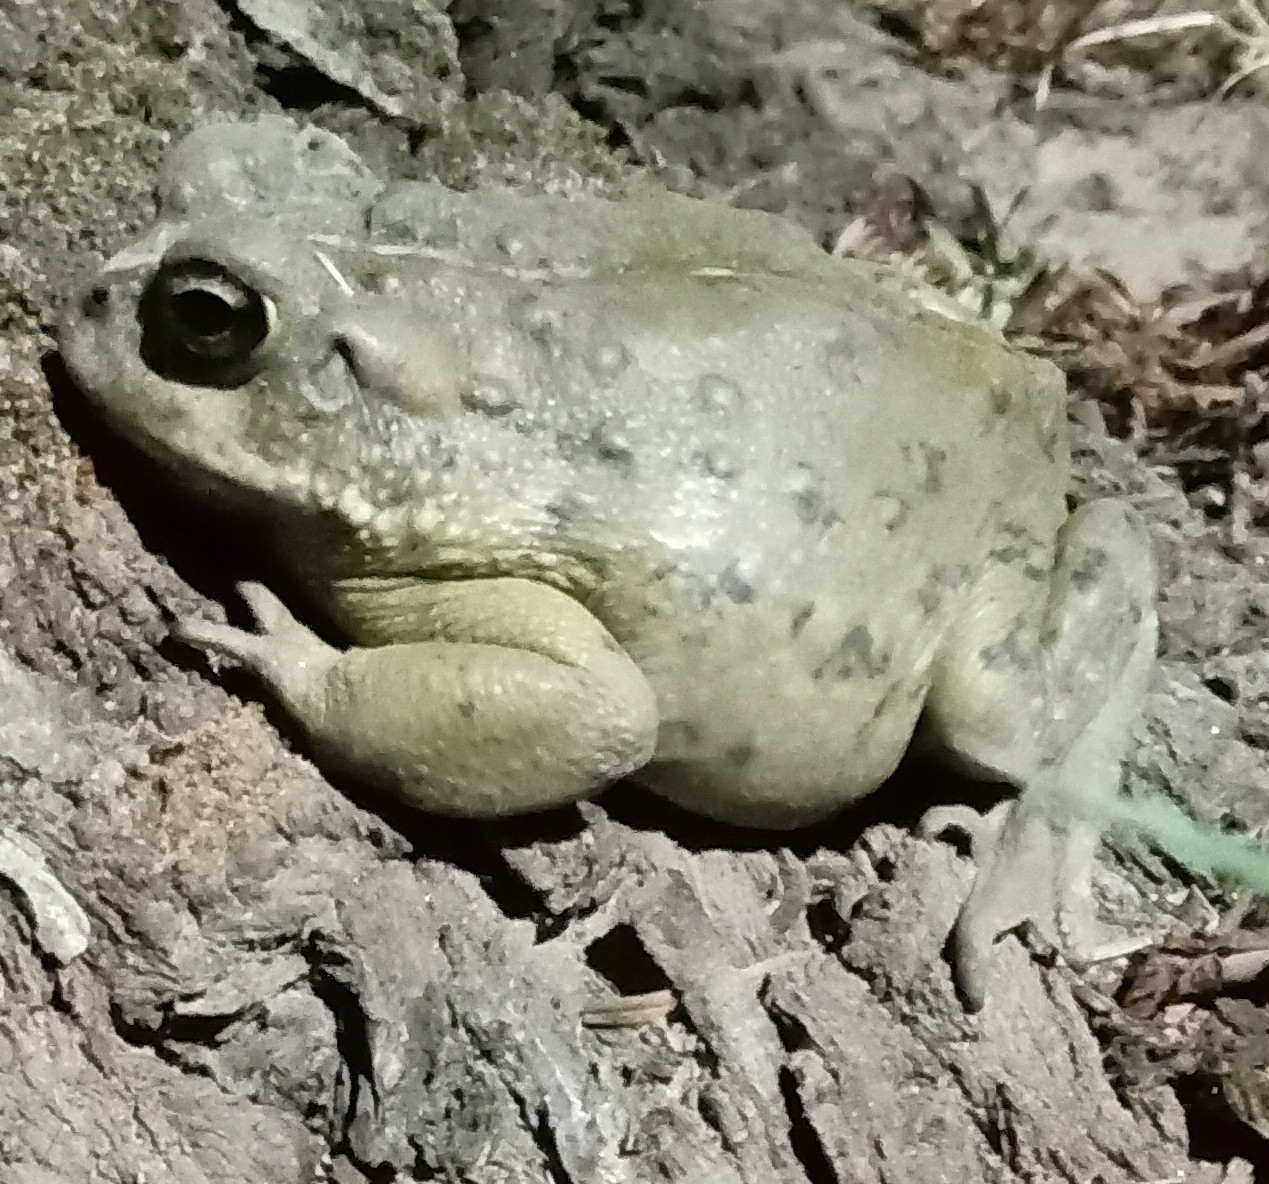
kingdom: Animalia
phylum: Chordata
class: Amphibia
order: Anura
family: Bufonidae
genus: Anaxyrus
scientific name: Anaxyrus boreas
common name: Western toad
